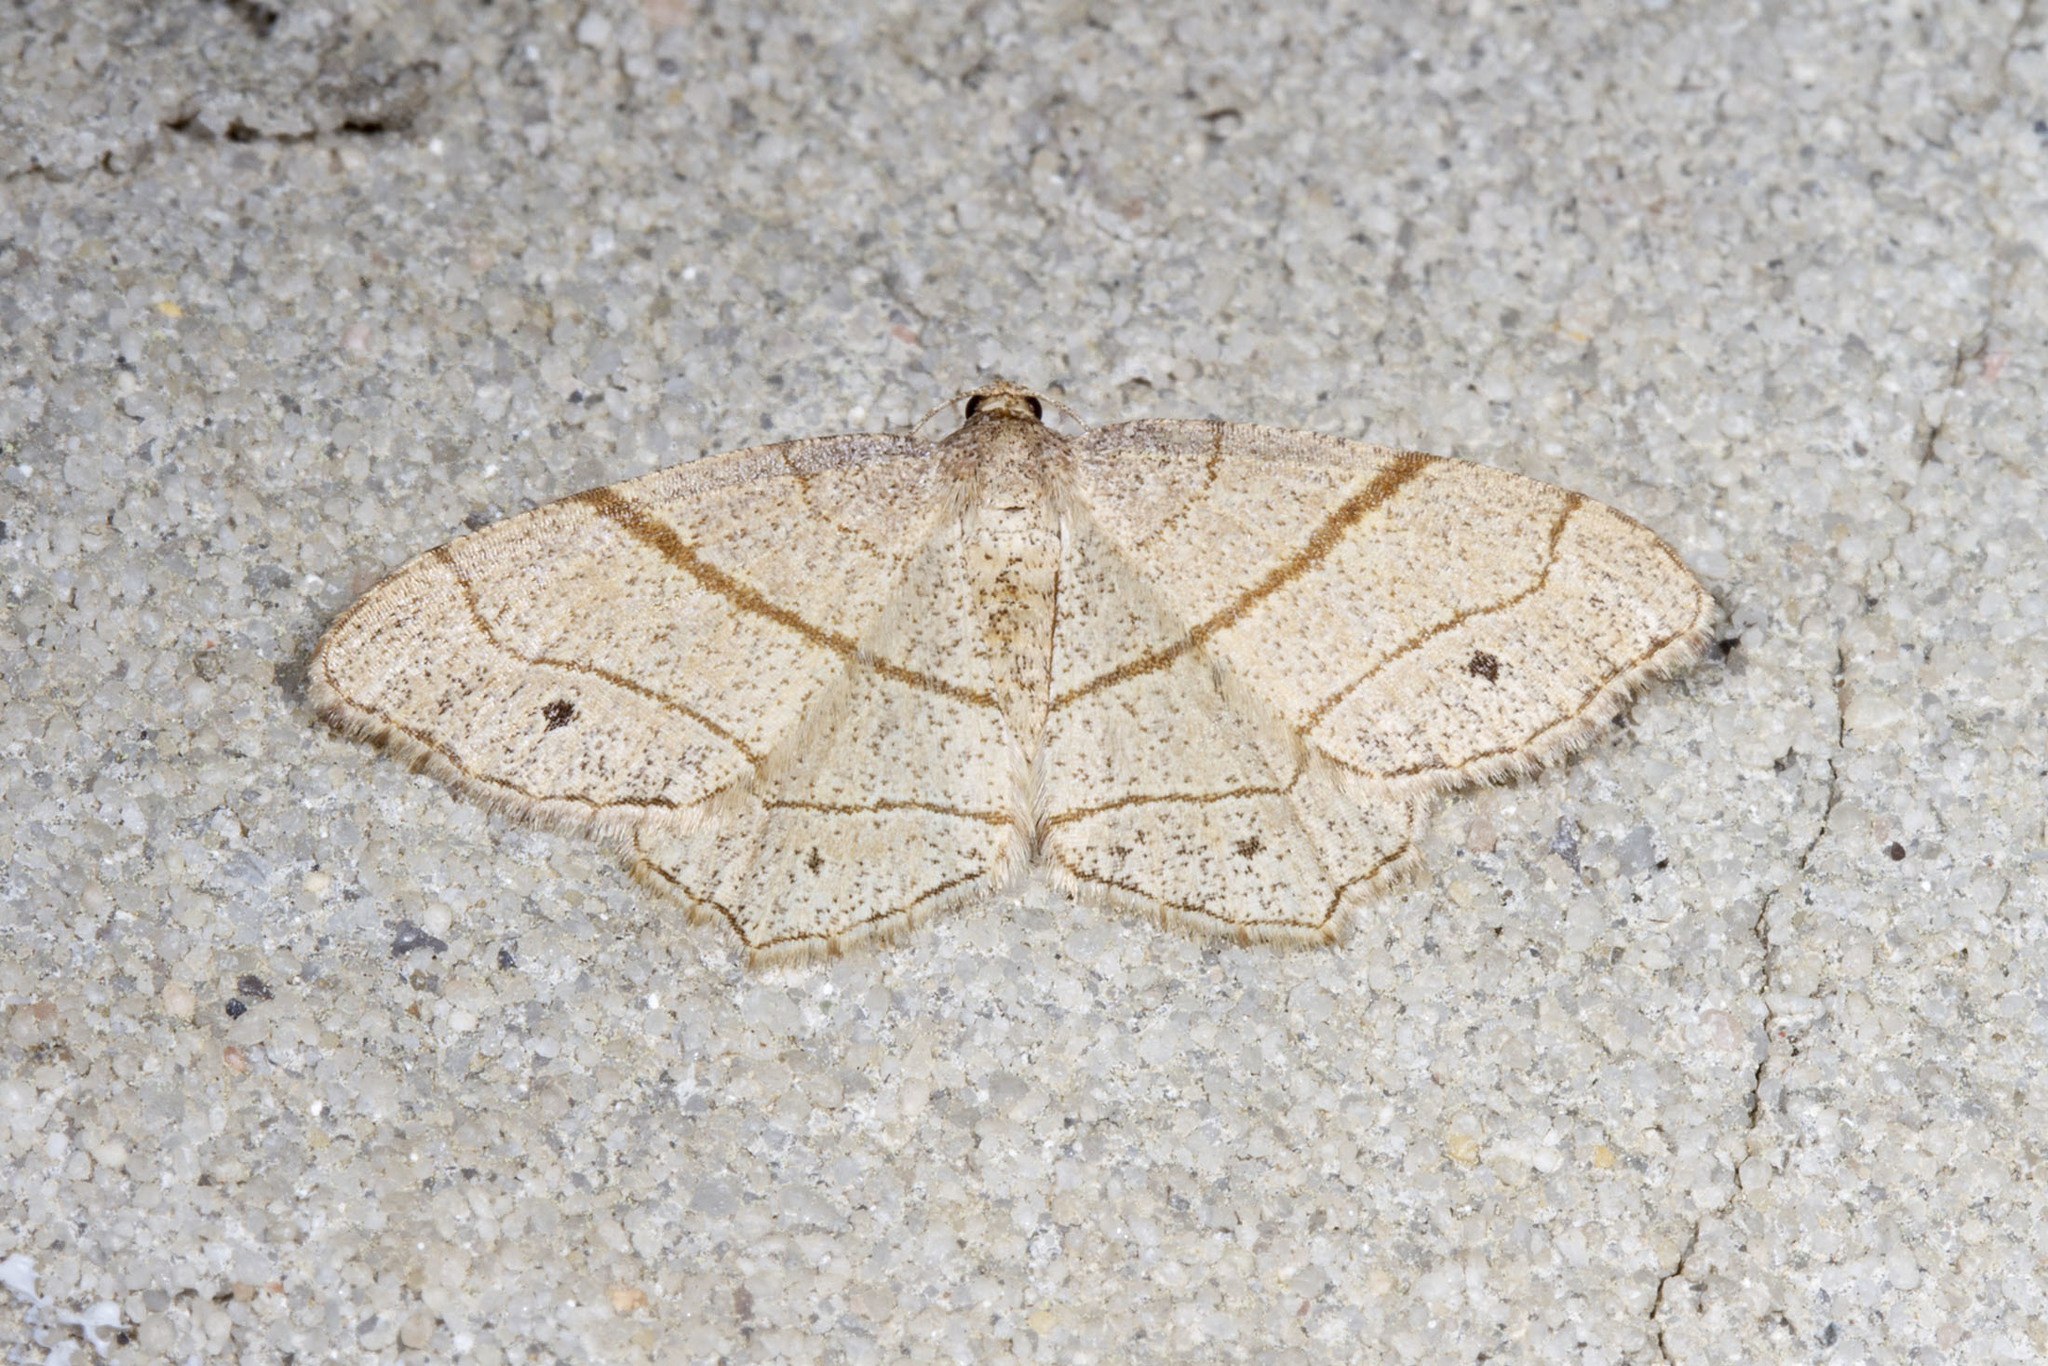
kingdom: Animalia
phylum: Arthropoda
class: Insecta
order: Lepidoptera
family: Geometridae
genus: Trigrammia
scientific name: Trigrammia quadrinotaria
